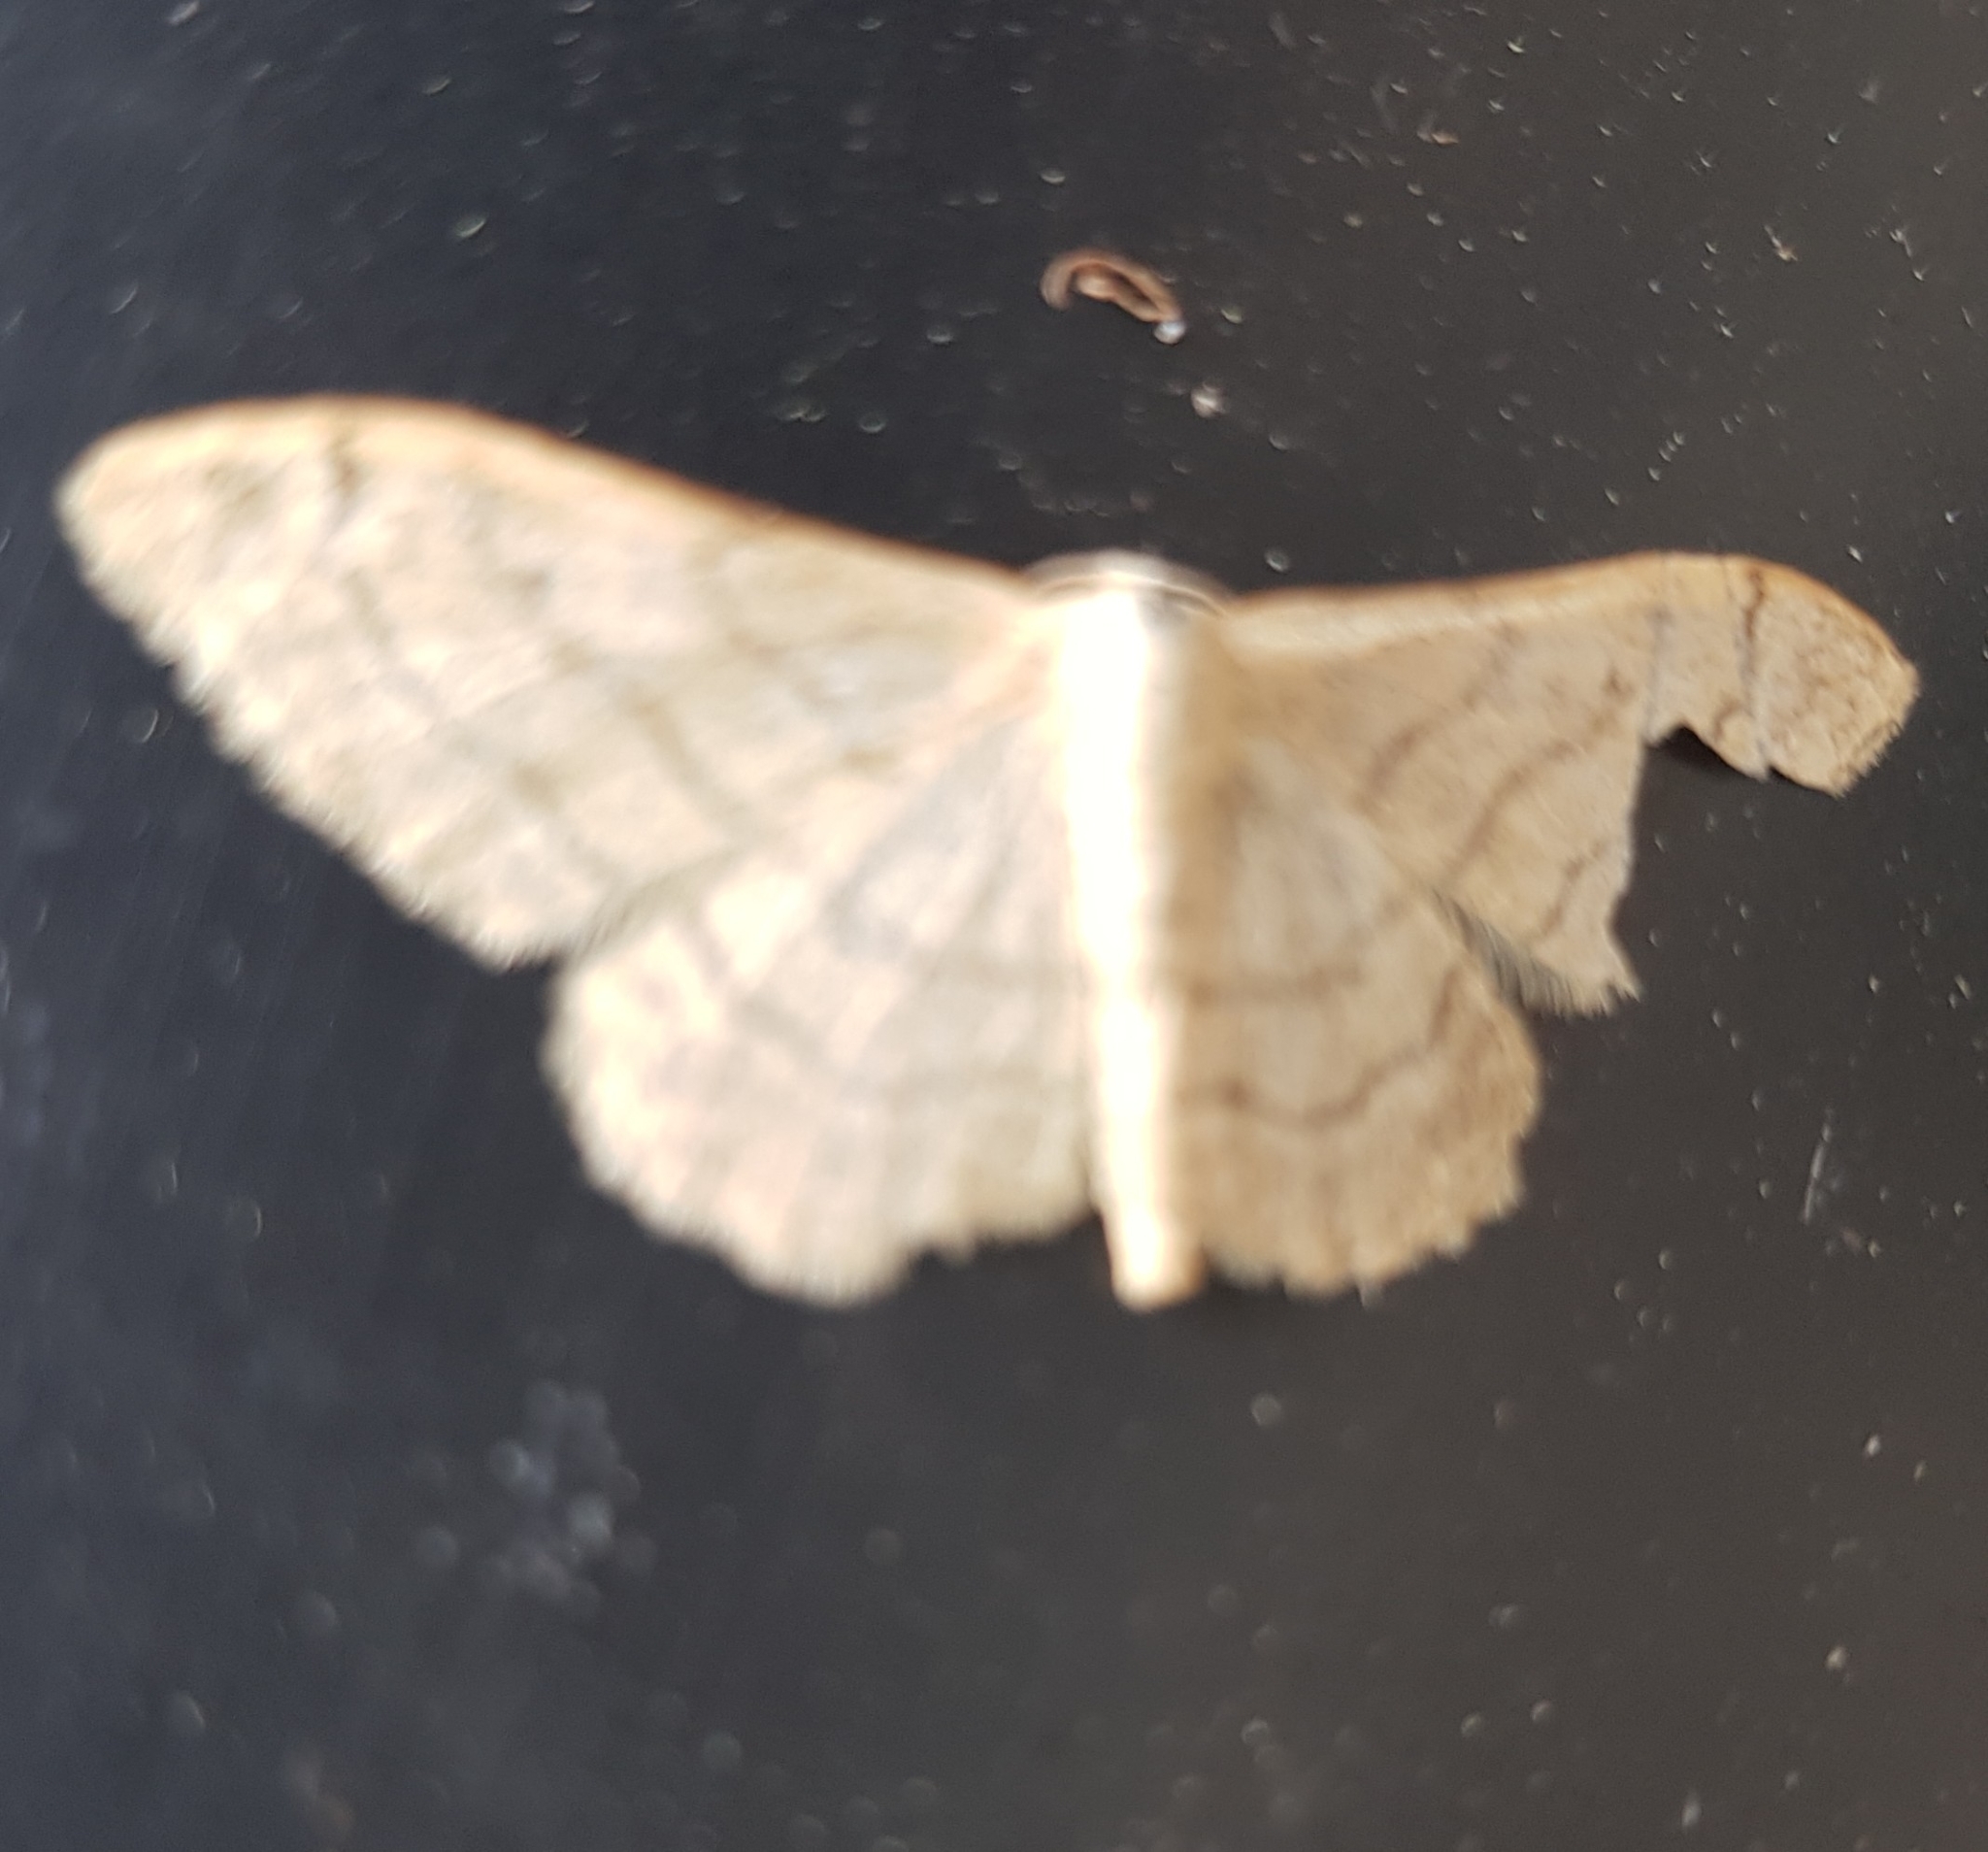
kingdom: Animalia
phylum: Arthropoda
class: Insecta
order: Lepidoptera
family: Geometridae
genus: Idaea
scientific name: Idaea aversata
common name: Riband wave
